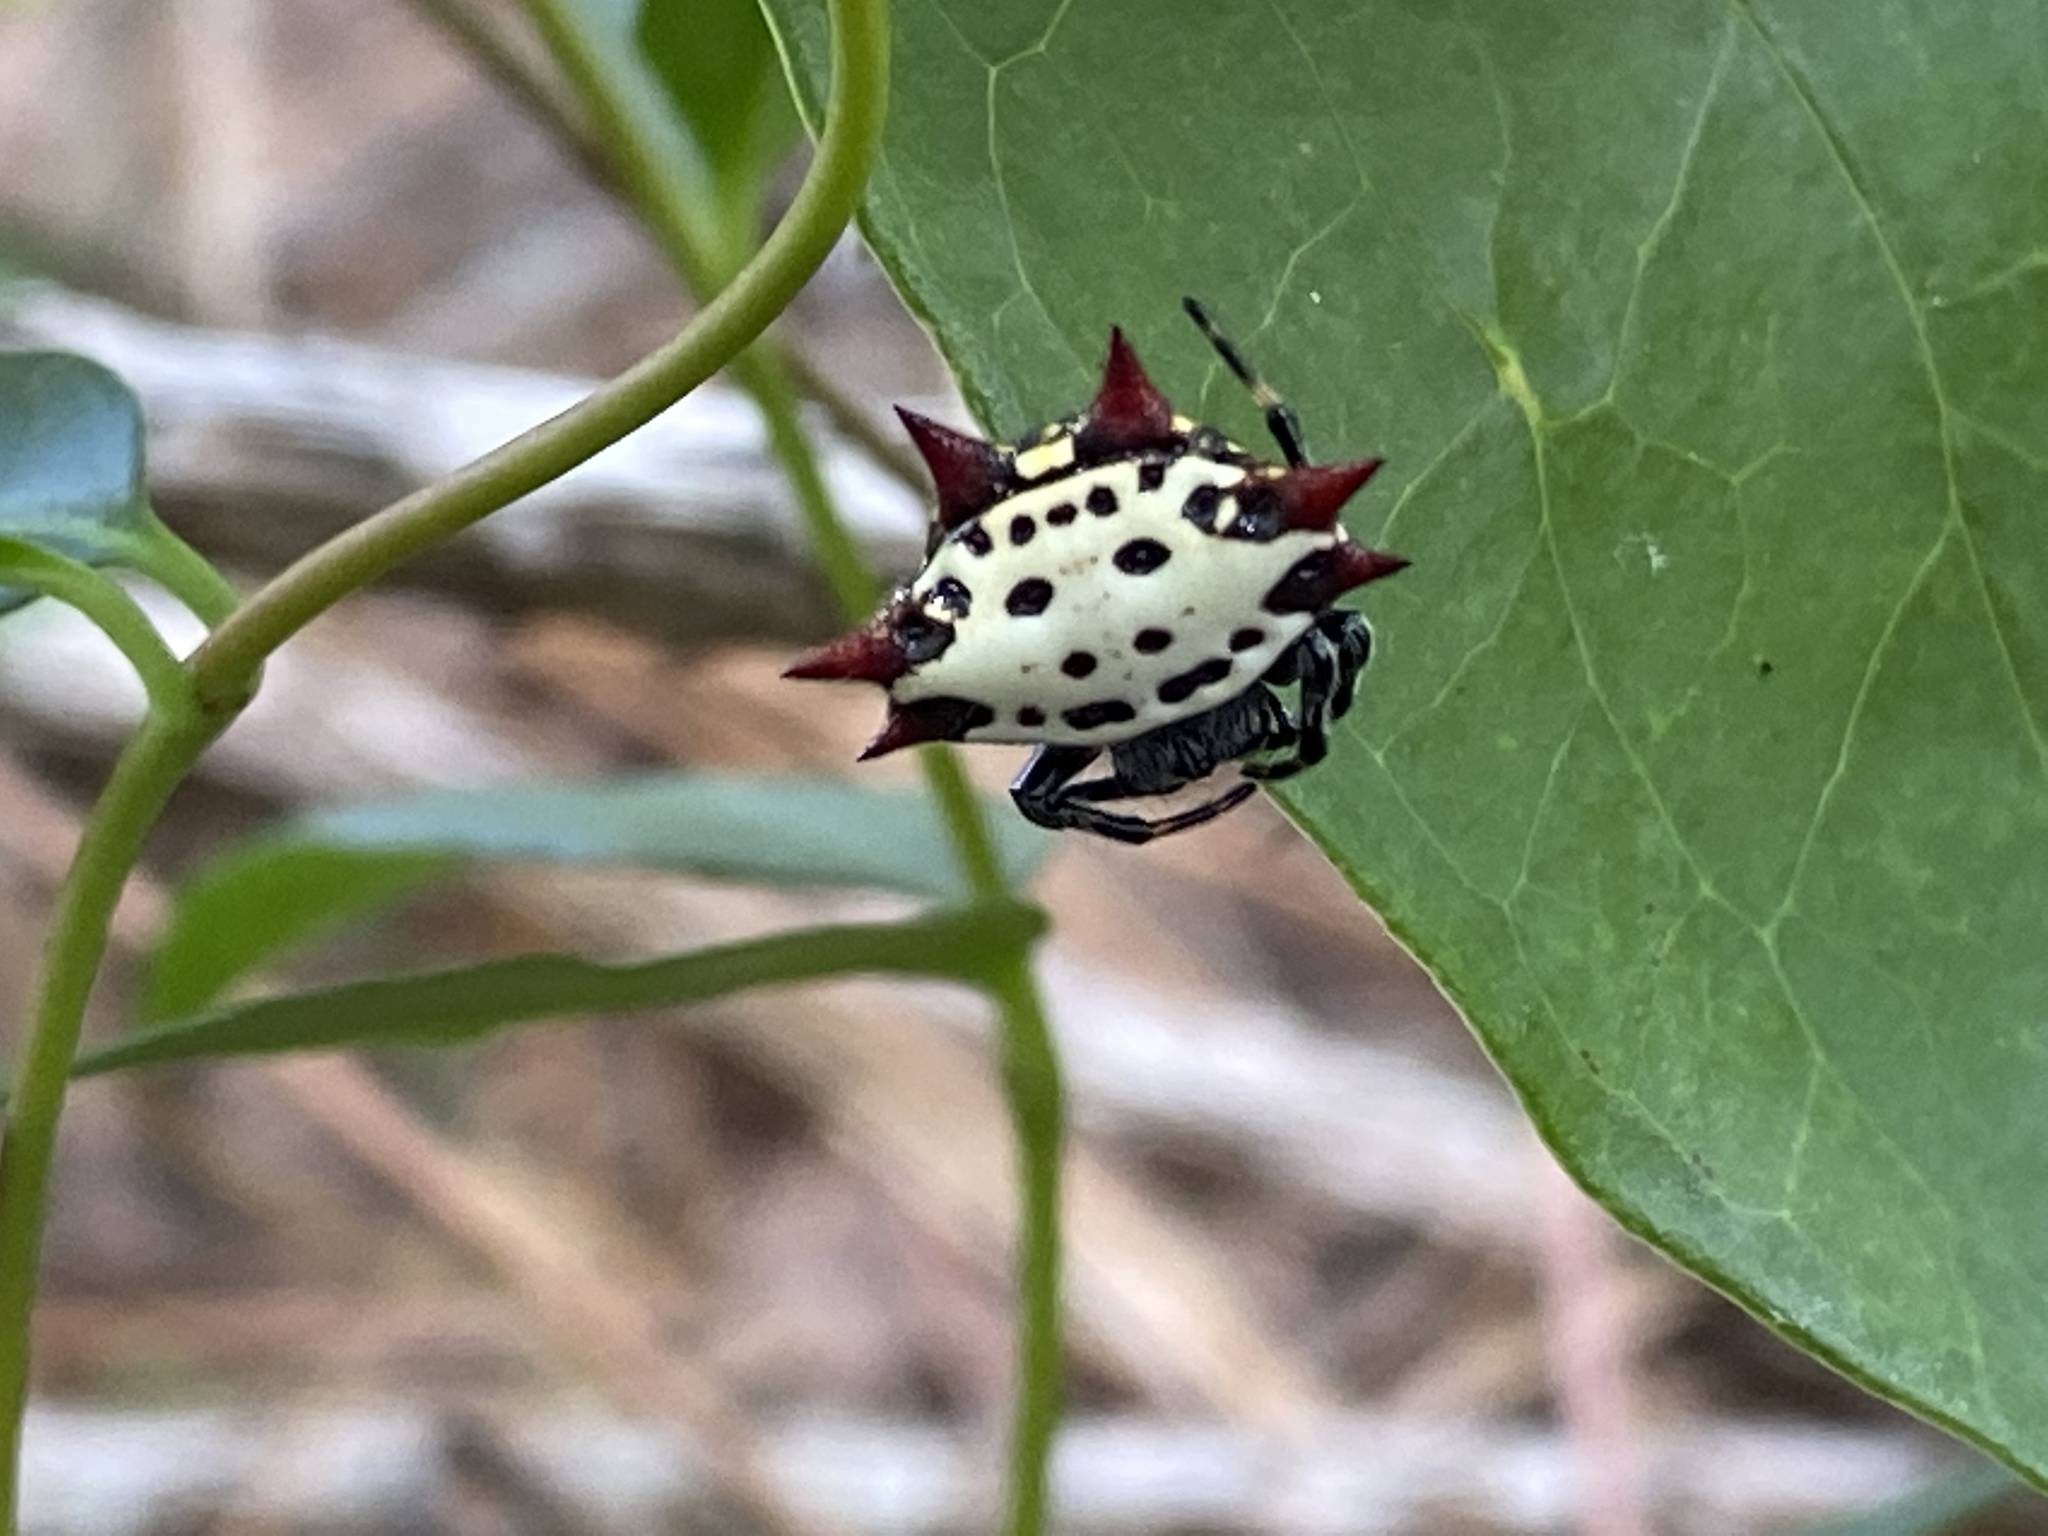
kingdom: Animalia
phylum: Arthropoda
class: Arachnida
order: Araneae
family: Araneidae
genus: Gasteracantha
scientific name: Gasteracantha cancriformis
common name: Orb weavers
